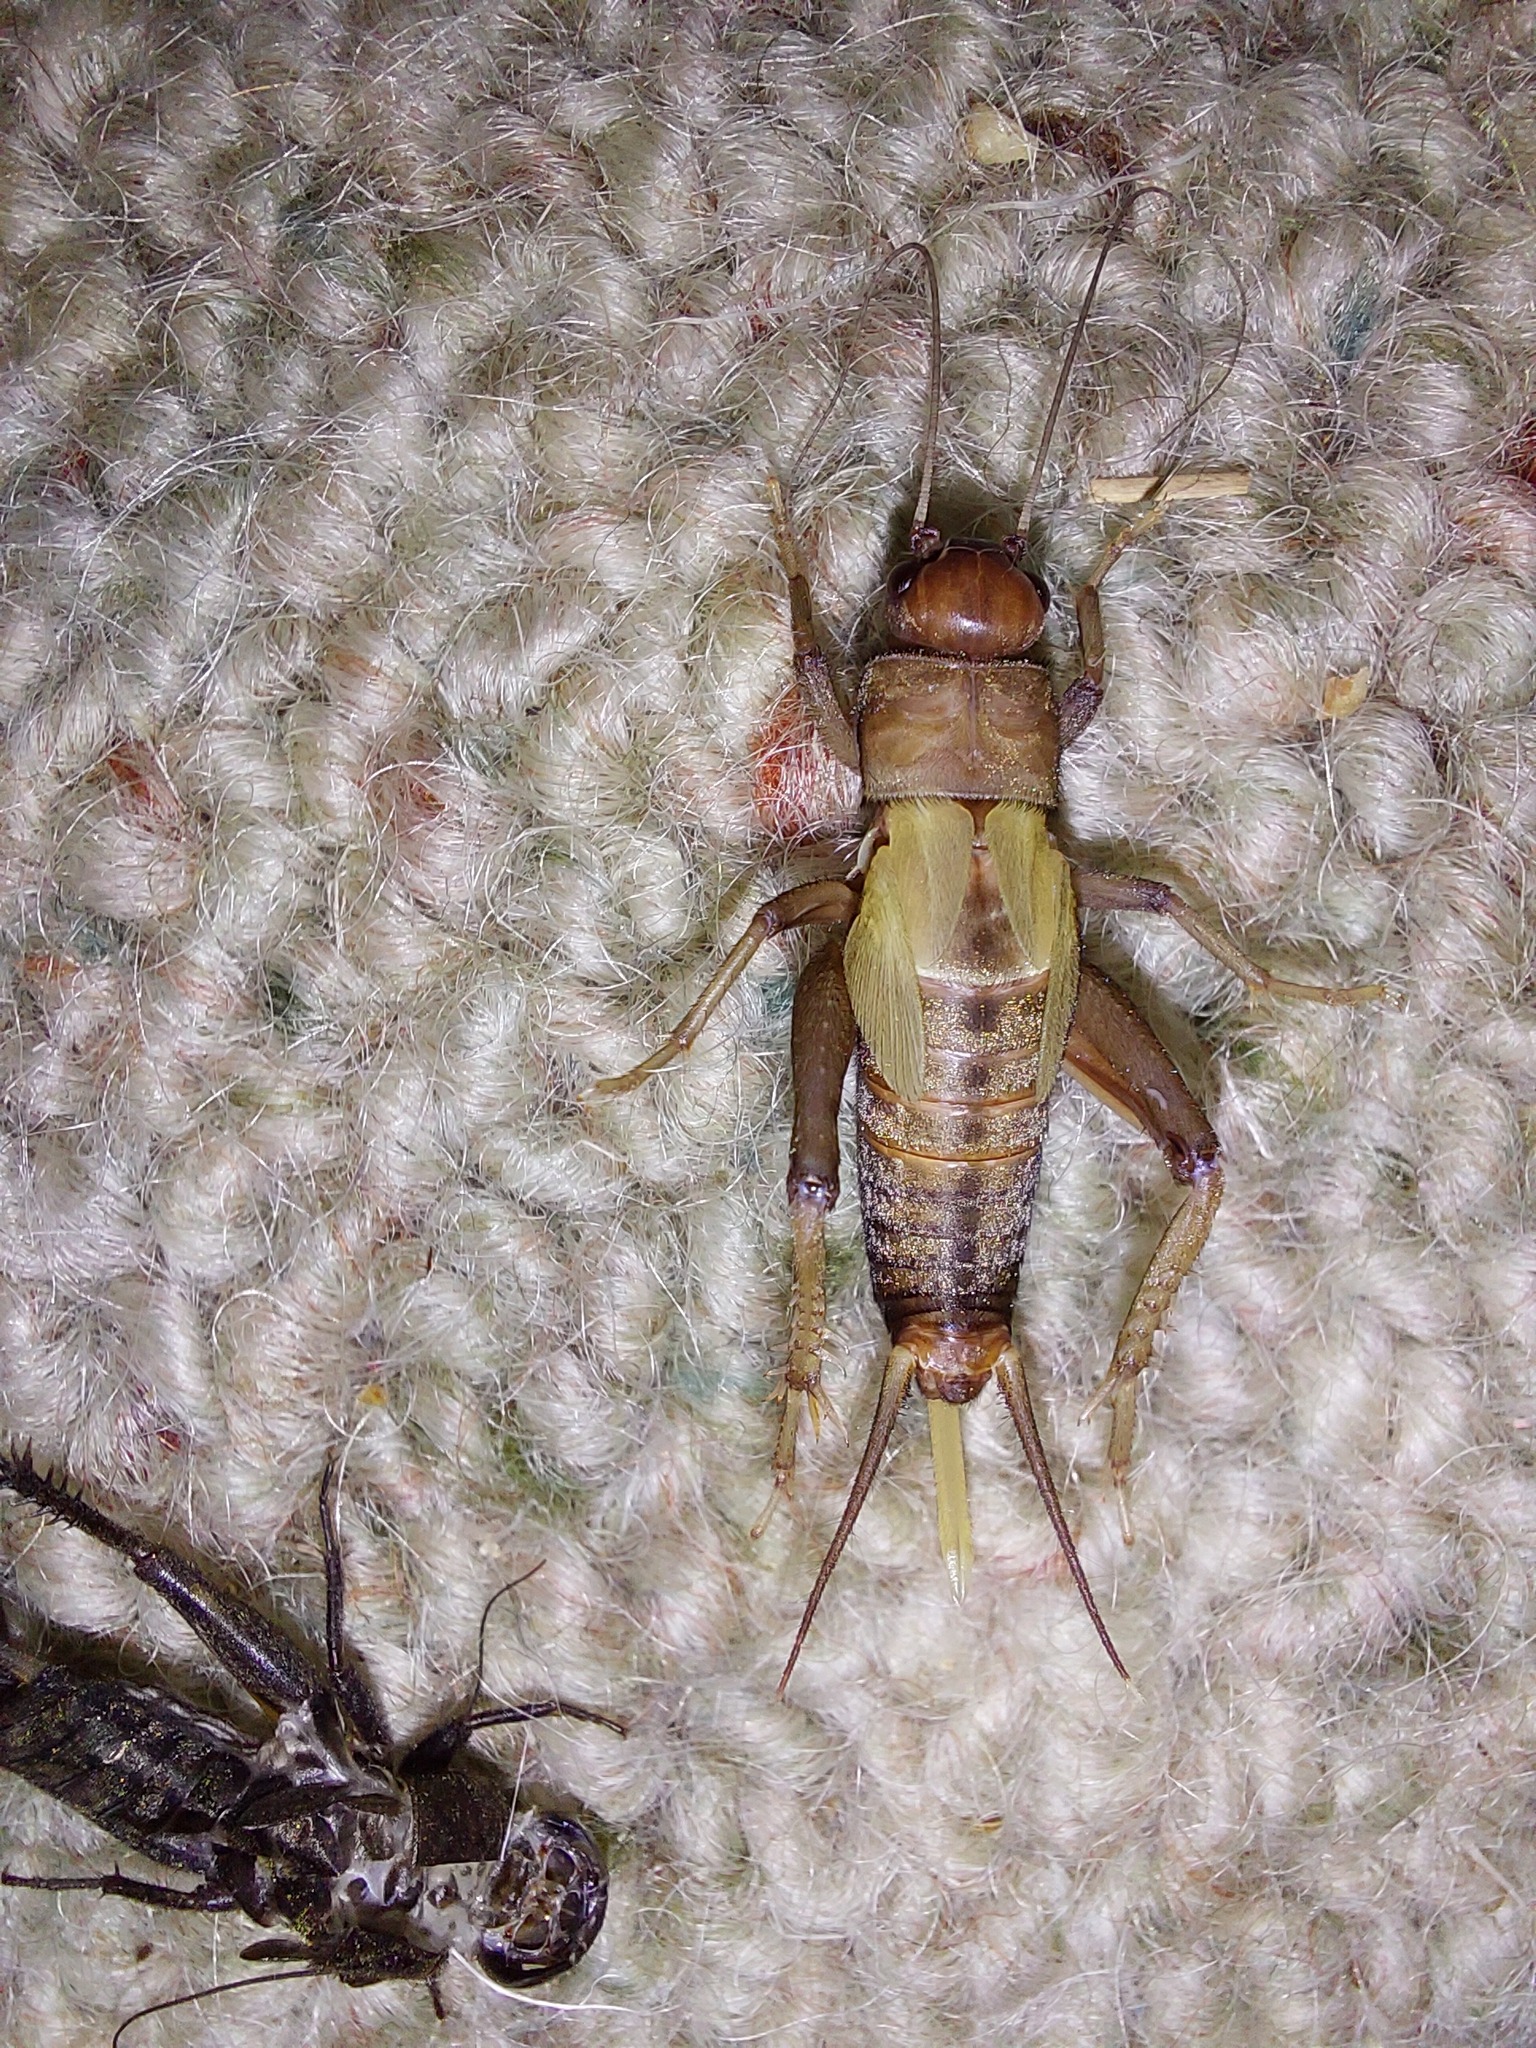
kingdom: Animalia
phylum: Arthropoda
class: Insecta
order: Orthoptera
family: Gryllidae
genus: Teleogryllus
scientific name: Teleogryllus commodus
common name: Black field cricket
